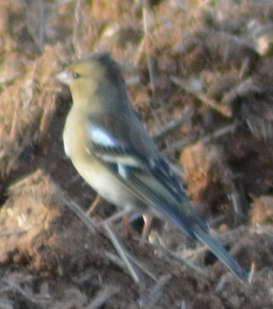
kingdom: Animalia
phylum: Chordata
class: Aves
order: Passeriformes
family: Fringillidae
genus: Fringilla
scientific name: Fringilla coelebs
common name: Common chaffinch
